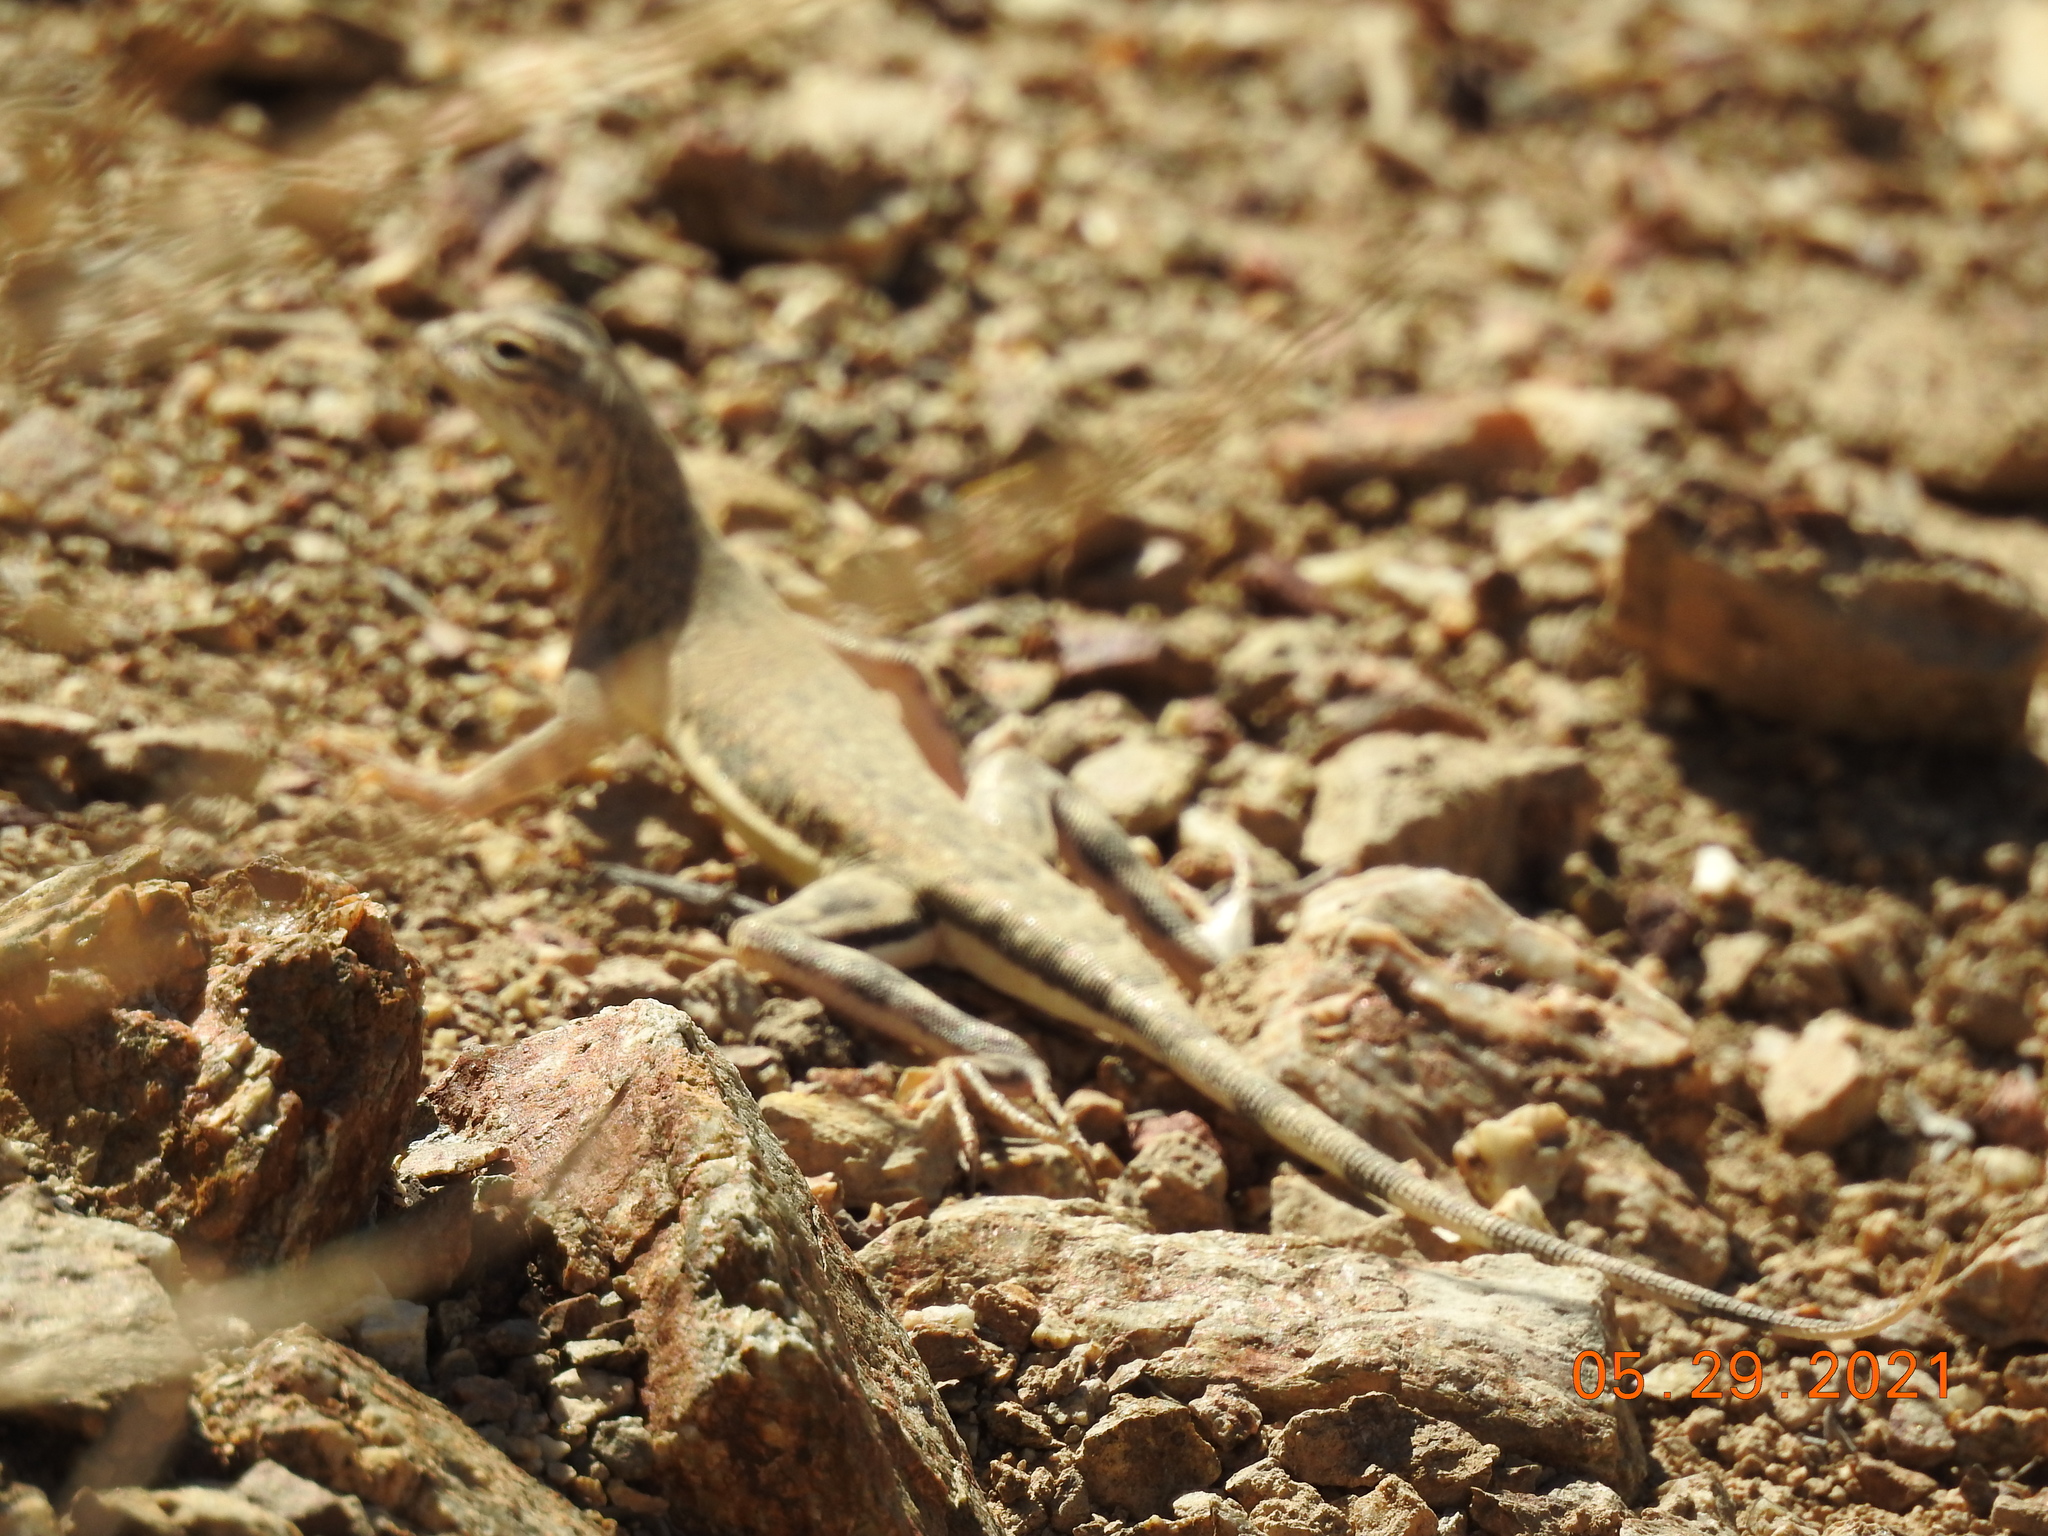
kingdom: Animalia
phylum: Chordata
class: Squamata
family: Phrynosomatidae
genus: Callisaurus
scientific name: Callisaurus draconoides
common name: Zebra-tailed lizard
